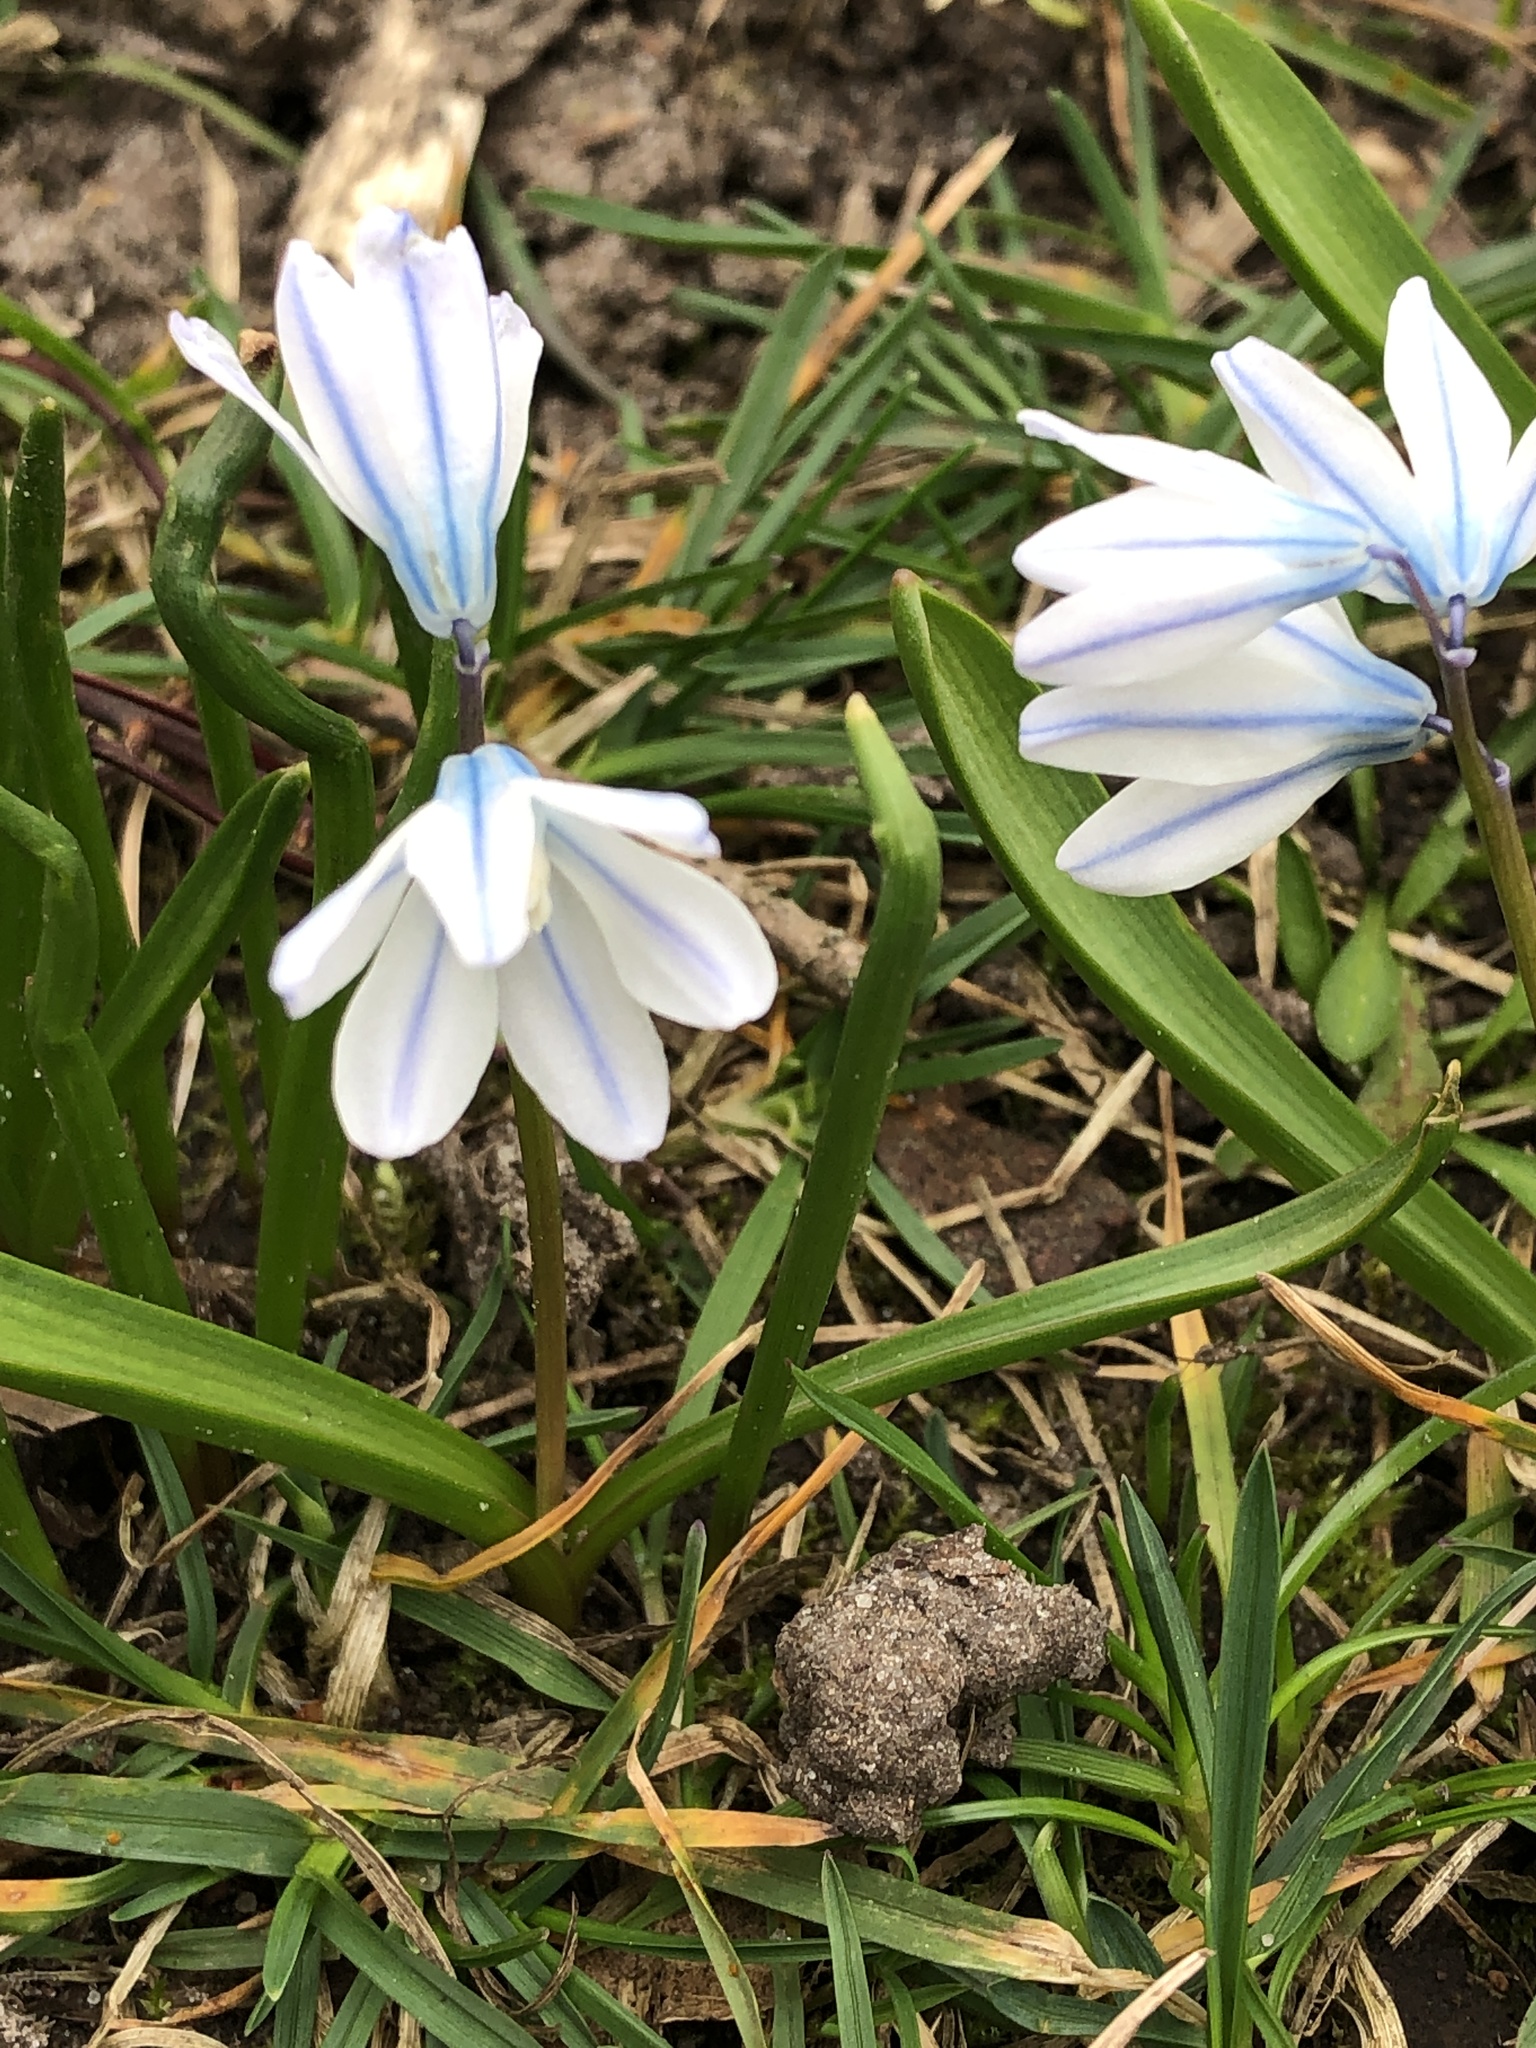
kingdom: Plantae
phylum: Tracheophyta
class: Liliopsida
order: Asparagales
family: Asparagaceae
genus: Puschkinia
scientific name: Puschkinia scilloides
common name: Striped squill
